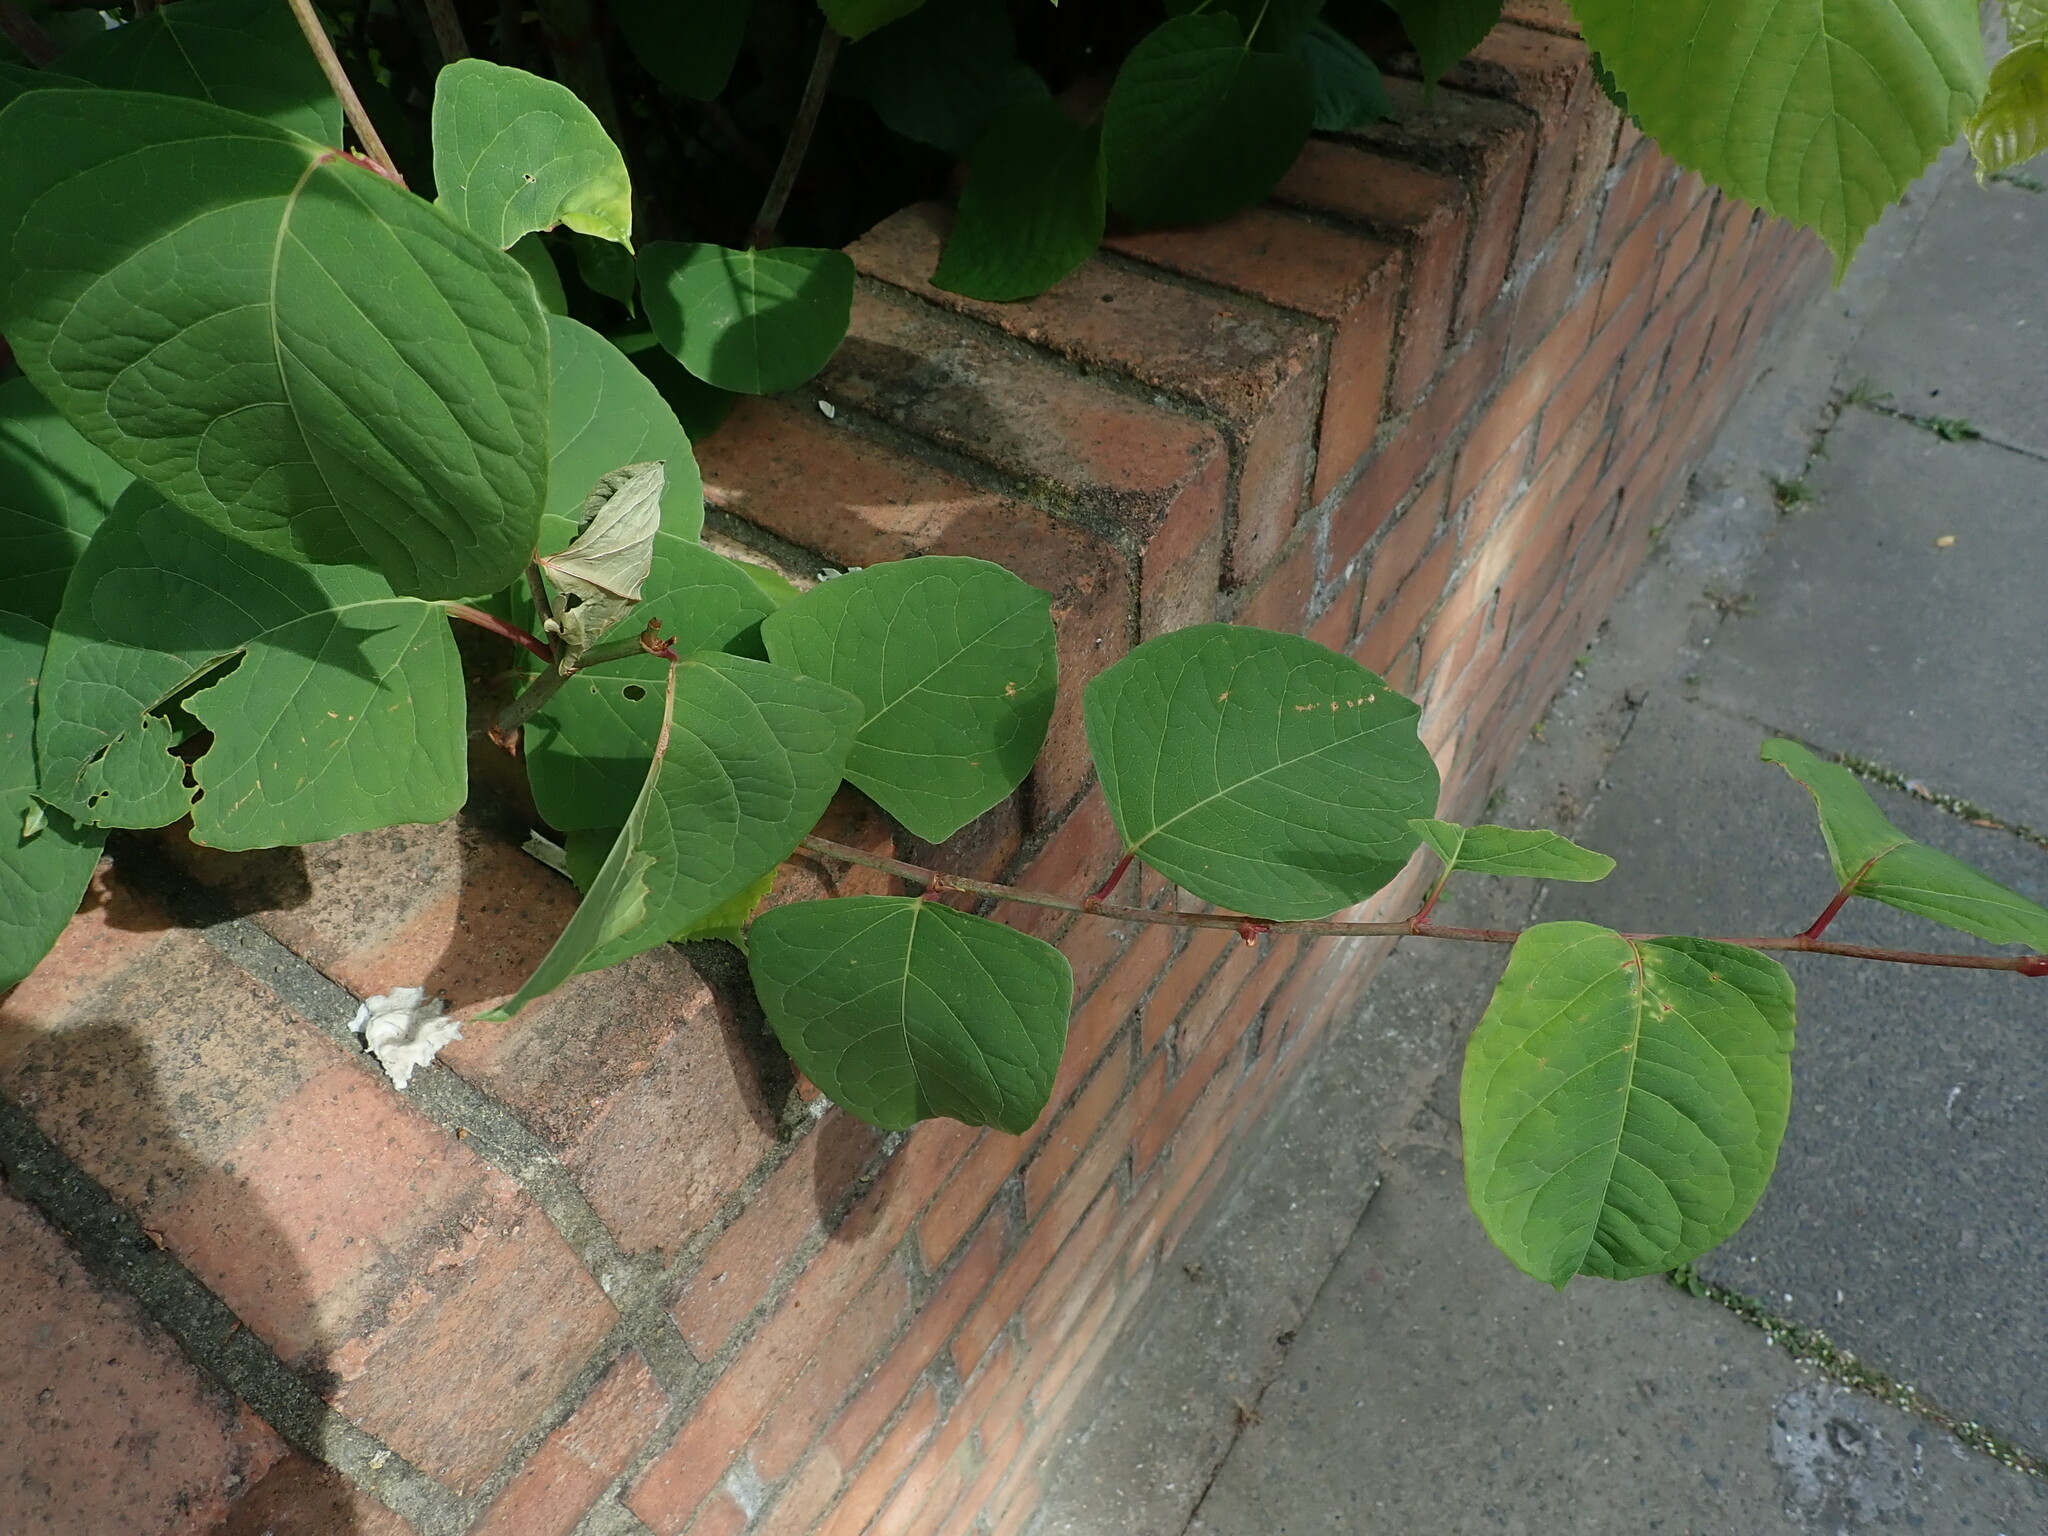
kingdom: Plantae
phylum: Tracheophyta
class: Magnoliopsida
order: Caryophyllales
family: Polygonaceae
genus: Reynoutria
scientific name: Reynoutria japonica
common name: Japanese knotweed
